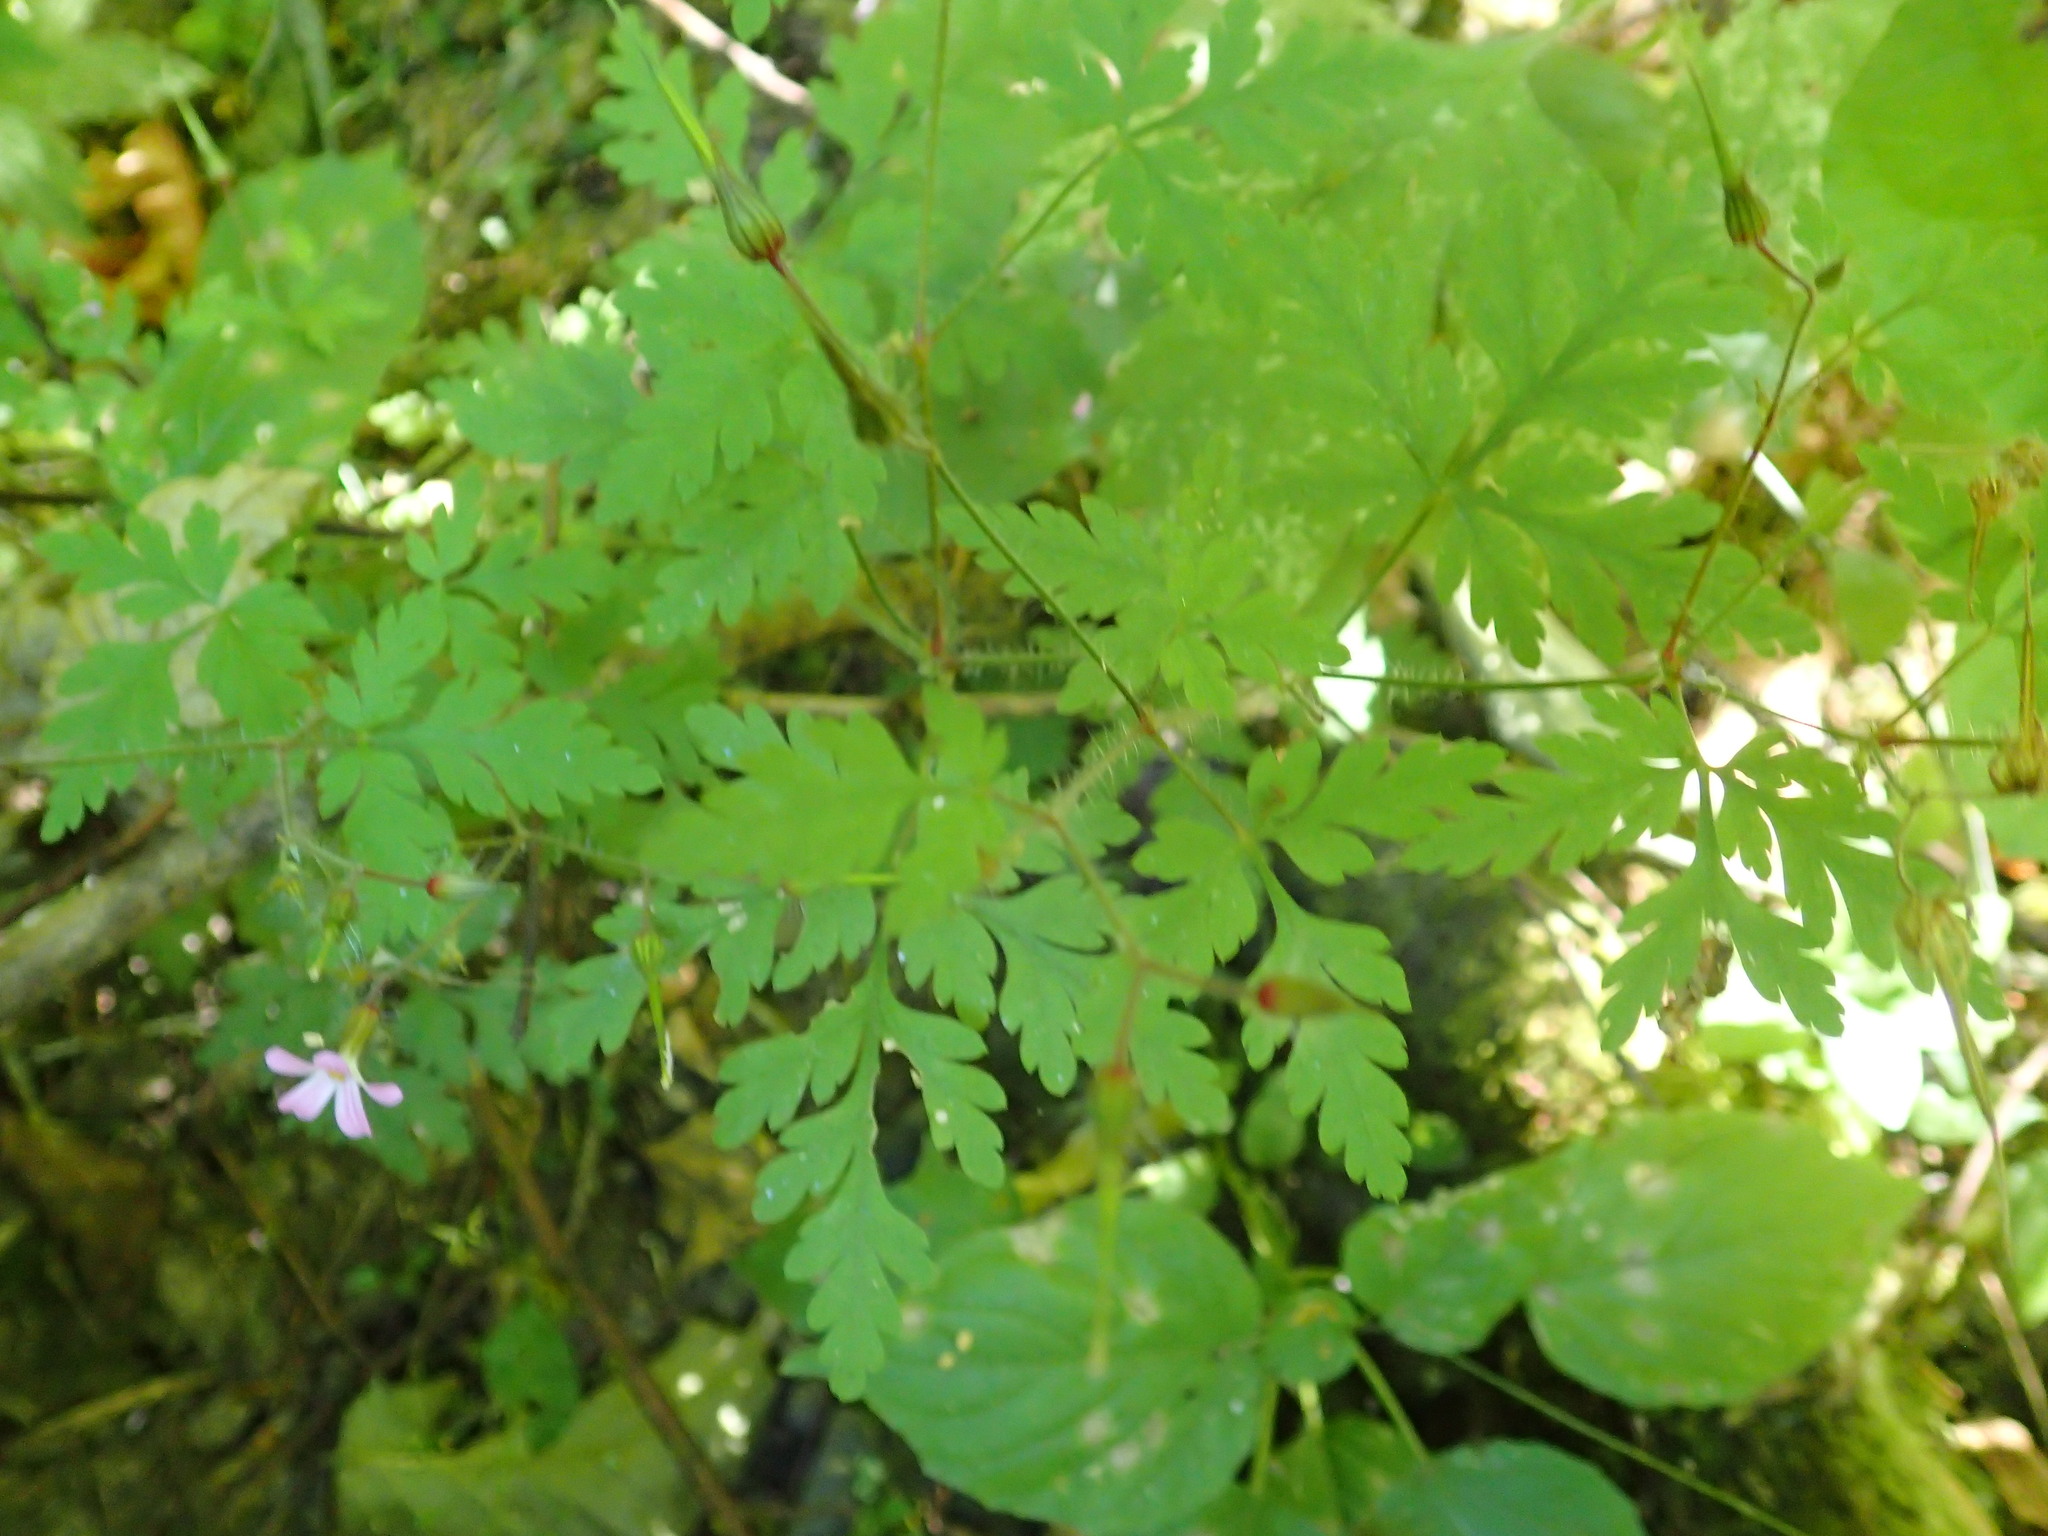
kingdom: Plantae
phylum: Tracheophyta
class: Magnoliopsida
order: Geraniales
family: Geraniaceae
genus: Geranium
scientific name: Geranium robertianum
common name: Herb-robert
